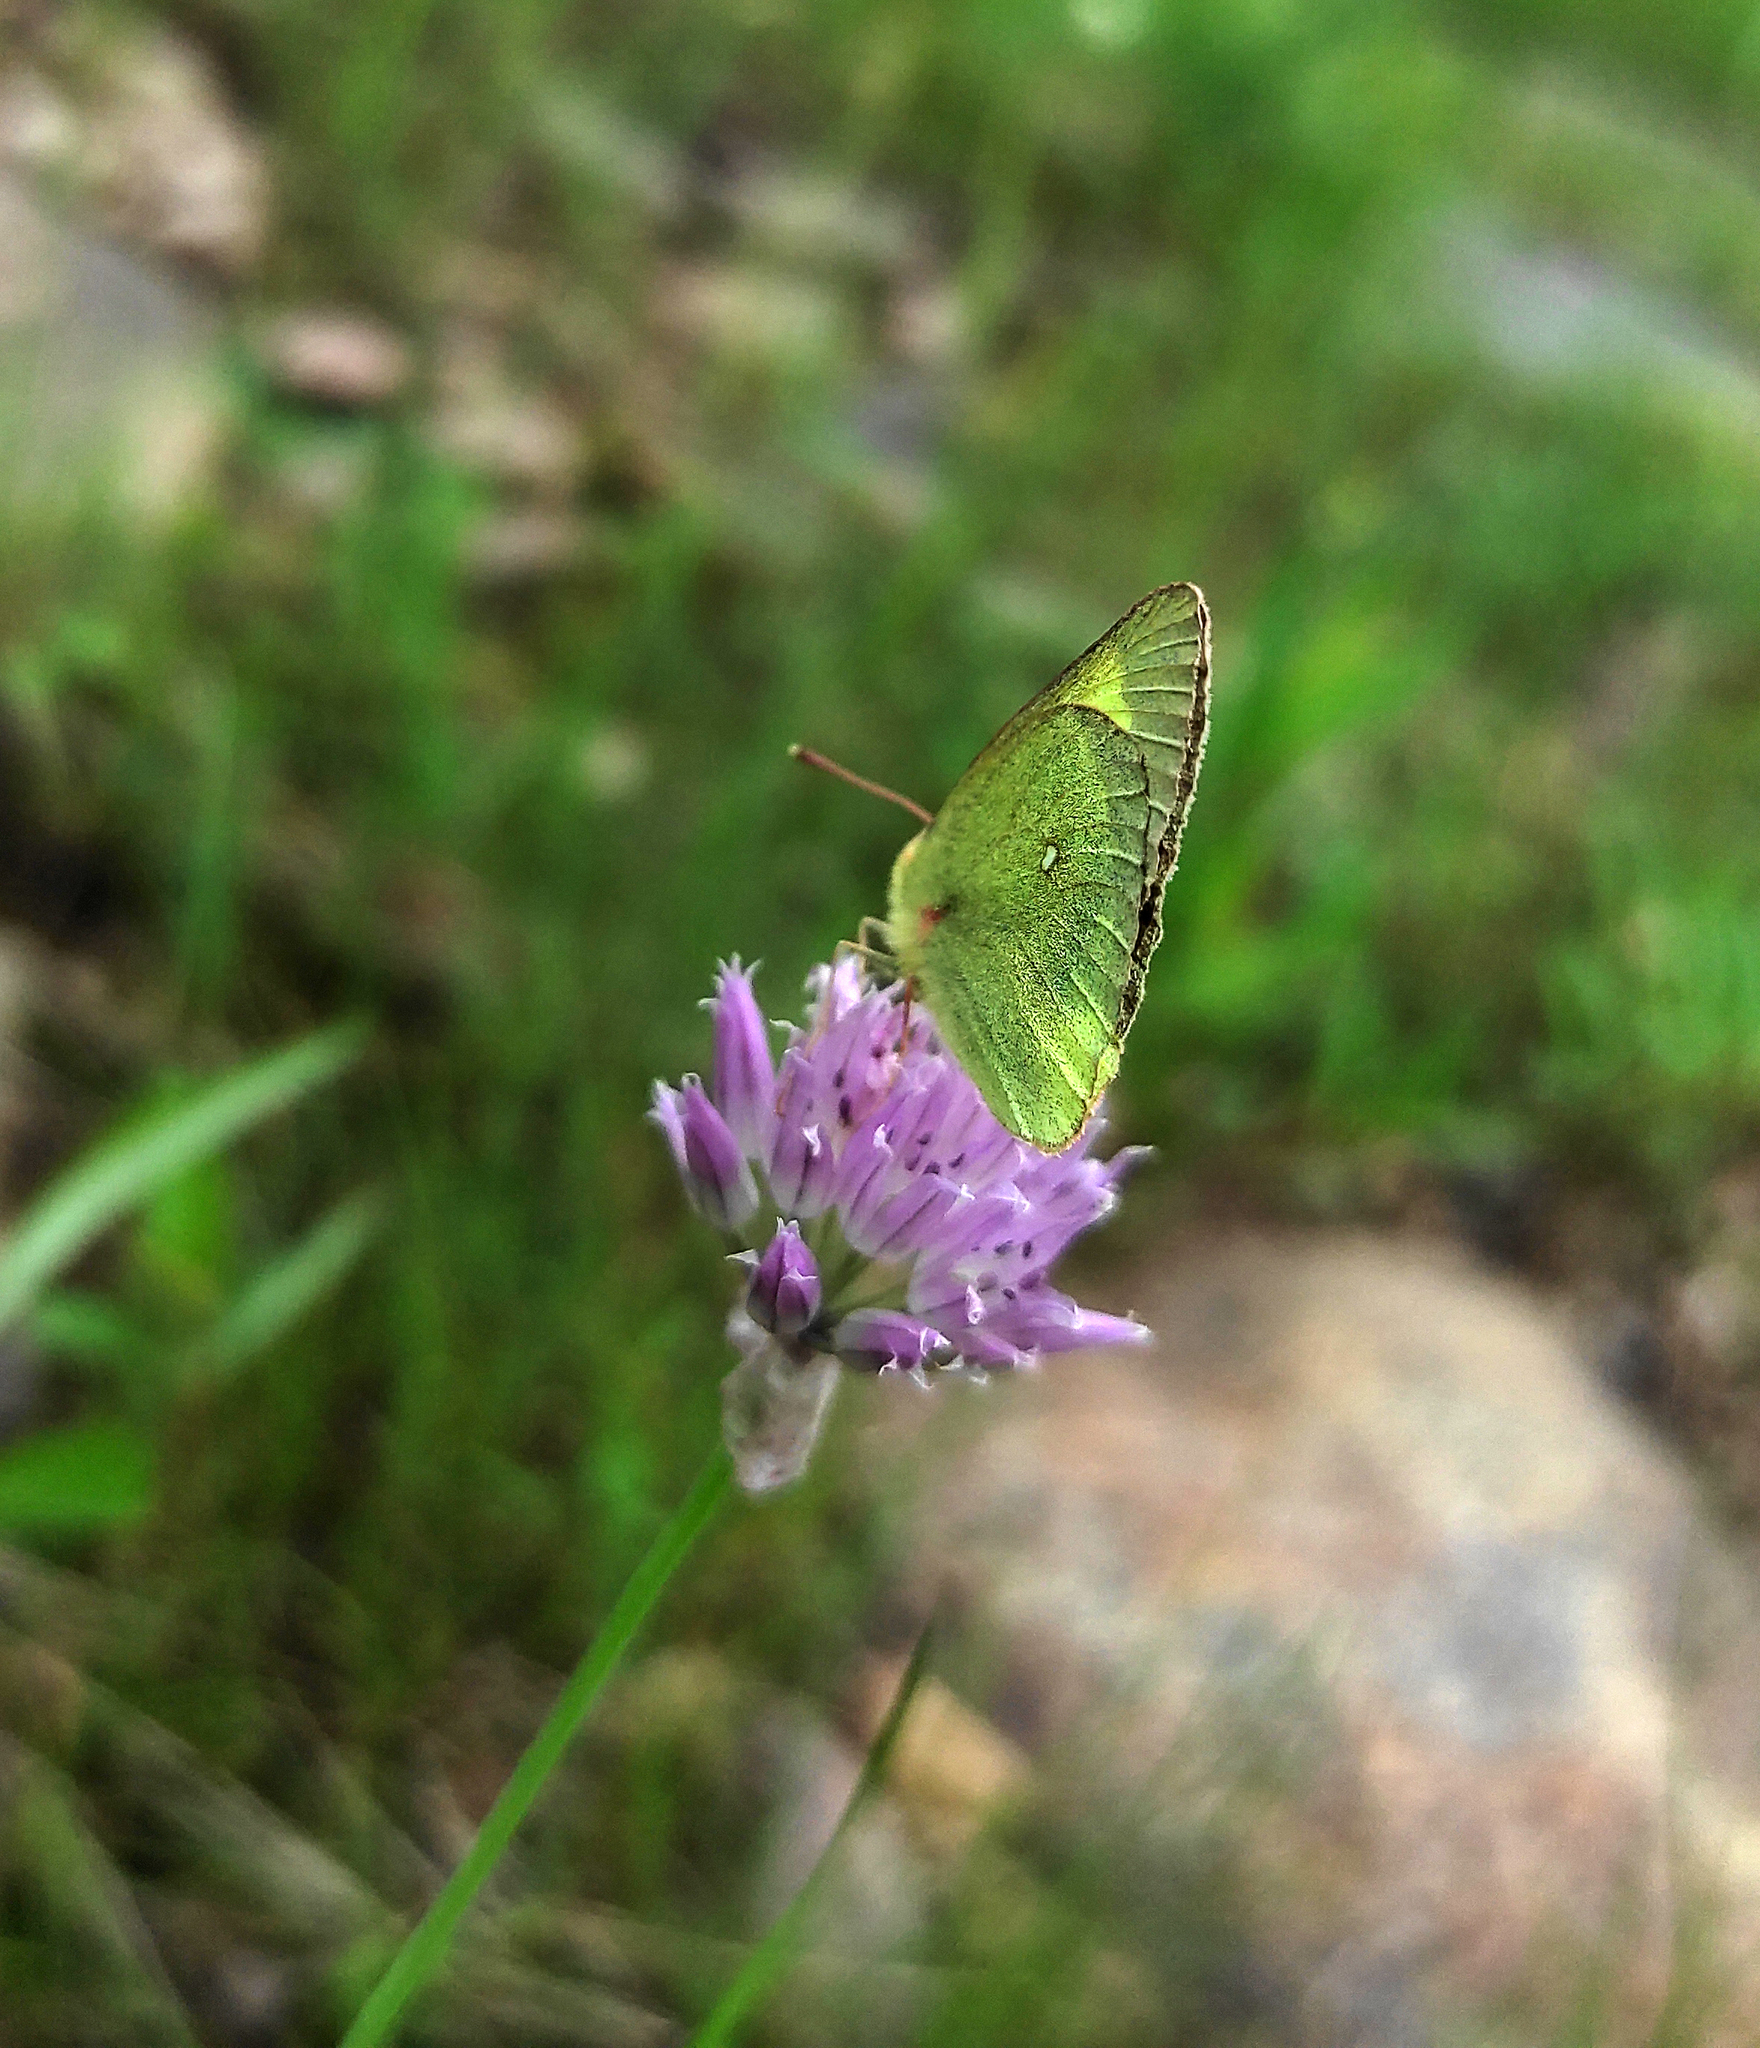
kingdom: Plantae
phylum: Tracheophyta
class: Liliopsida
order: Asparagales
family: Amaryllidaceae
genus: Allium
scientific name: Allium schoenoprasum
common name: Chives
